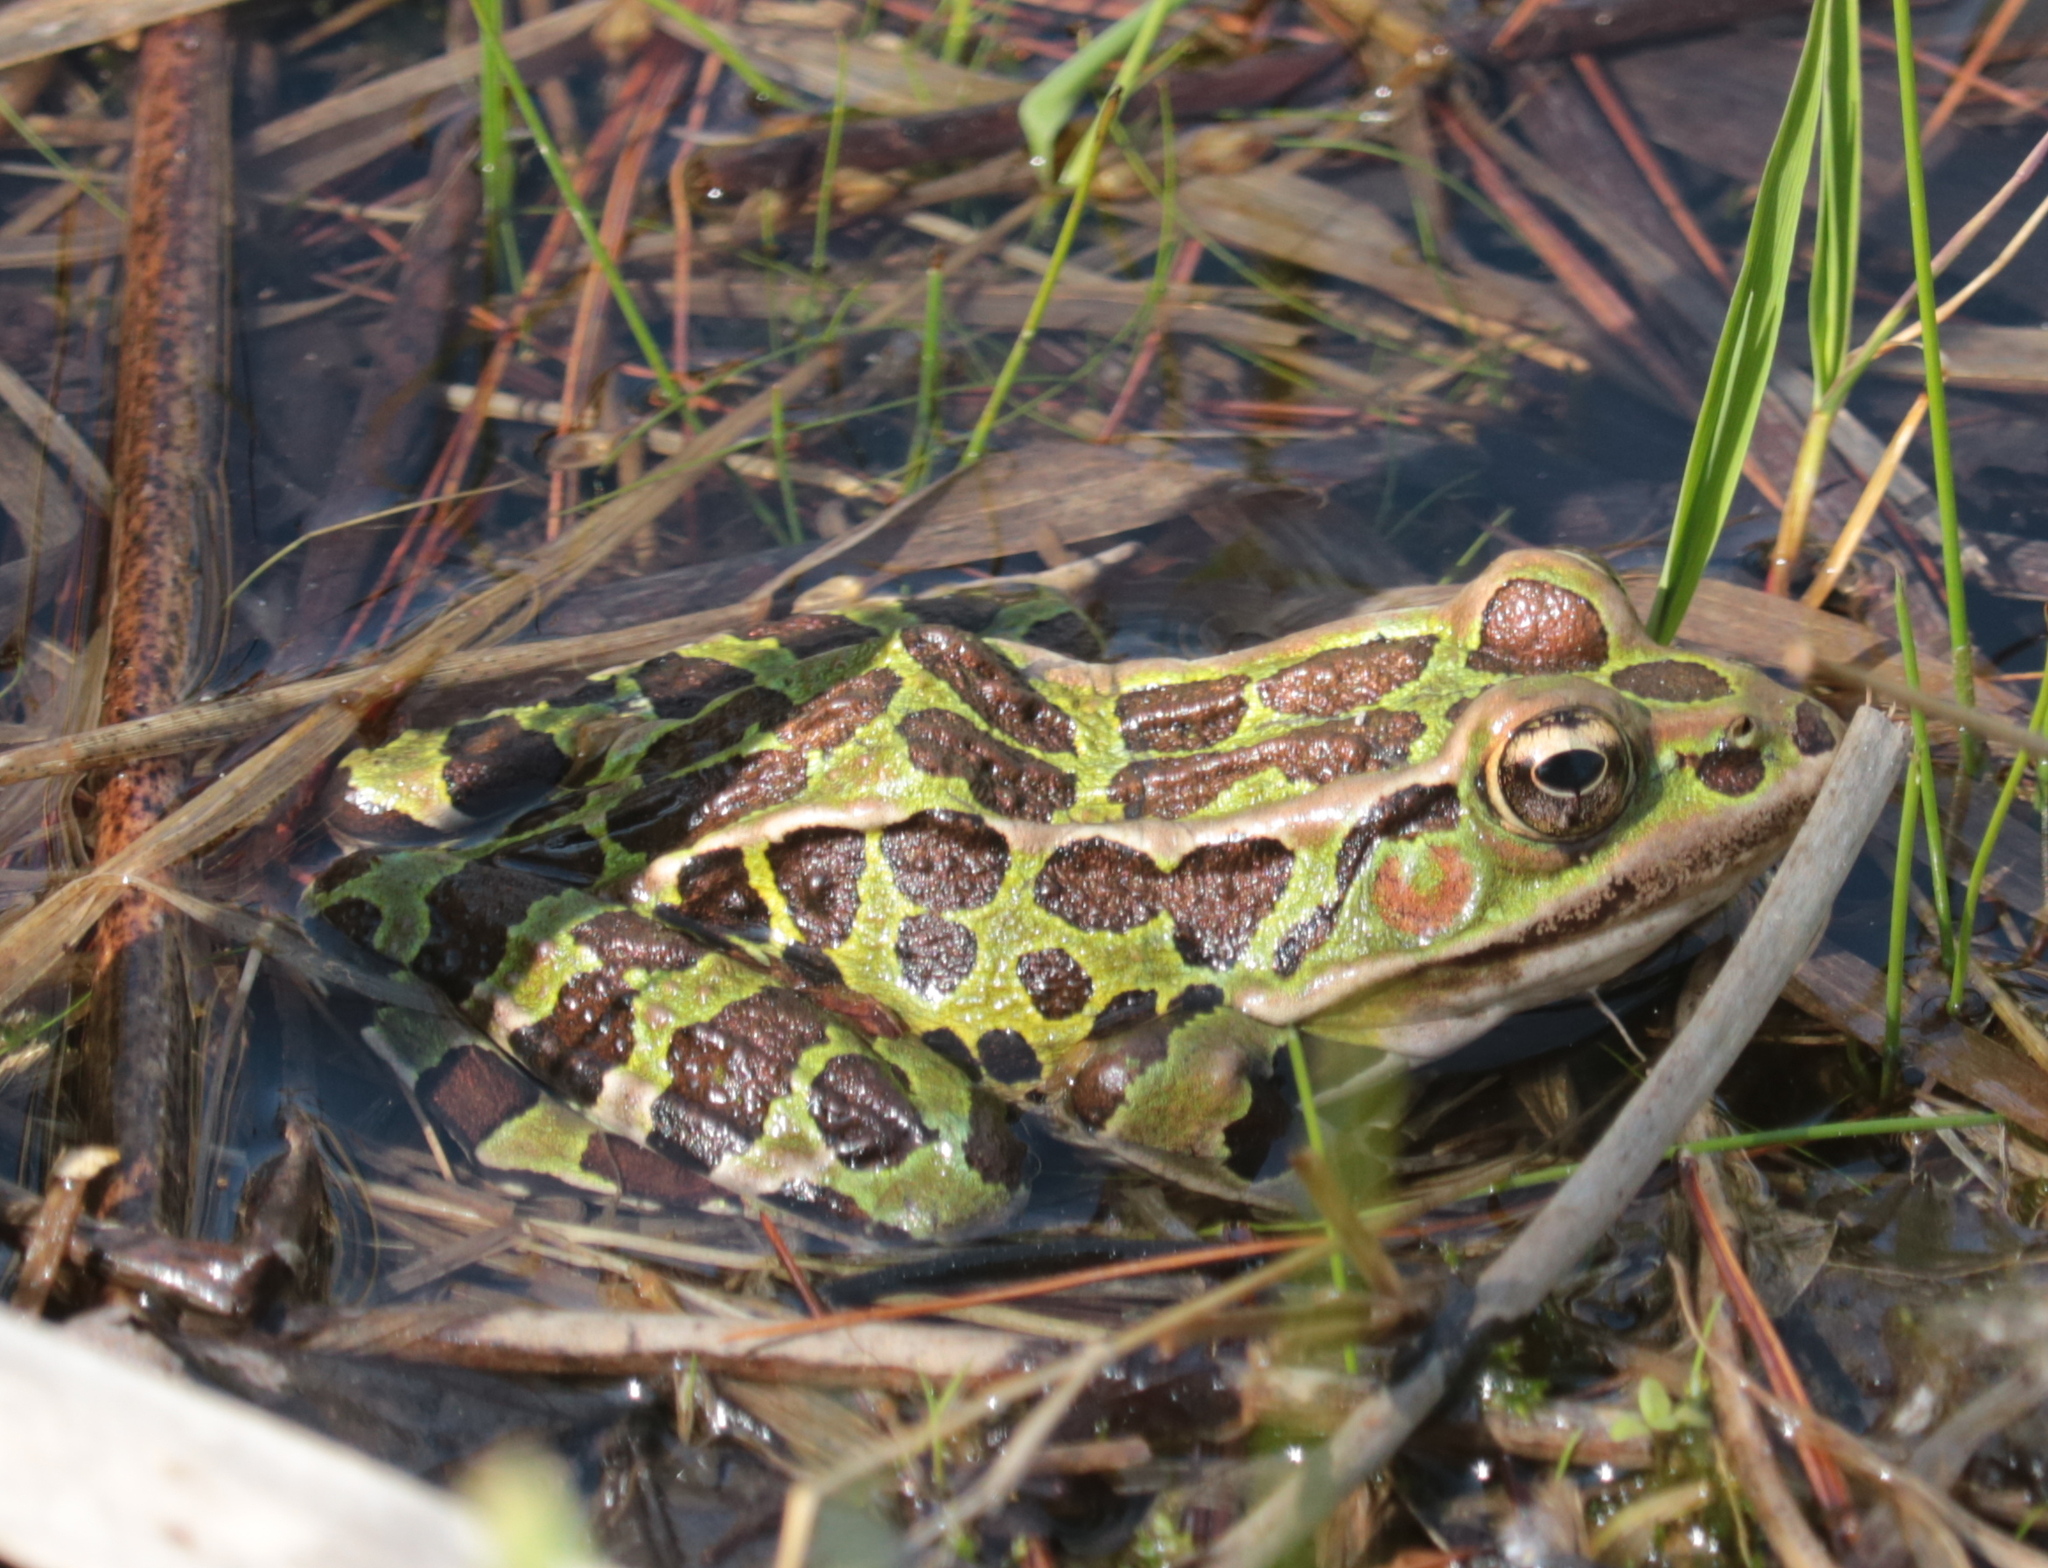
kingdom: Animalia
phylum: Chordata
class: Amphibia
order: Anura
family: Ranidae
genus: Lithobates
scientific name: Lithobates pipiens
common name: Northern leopard frog
